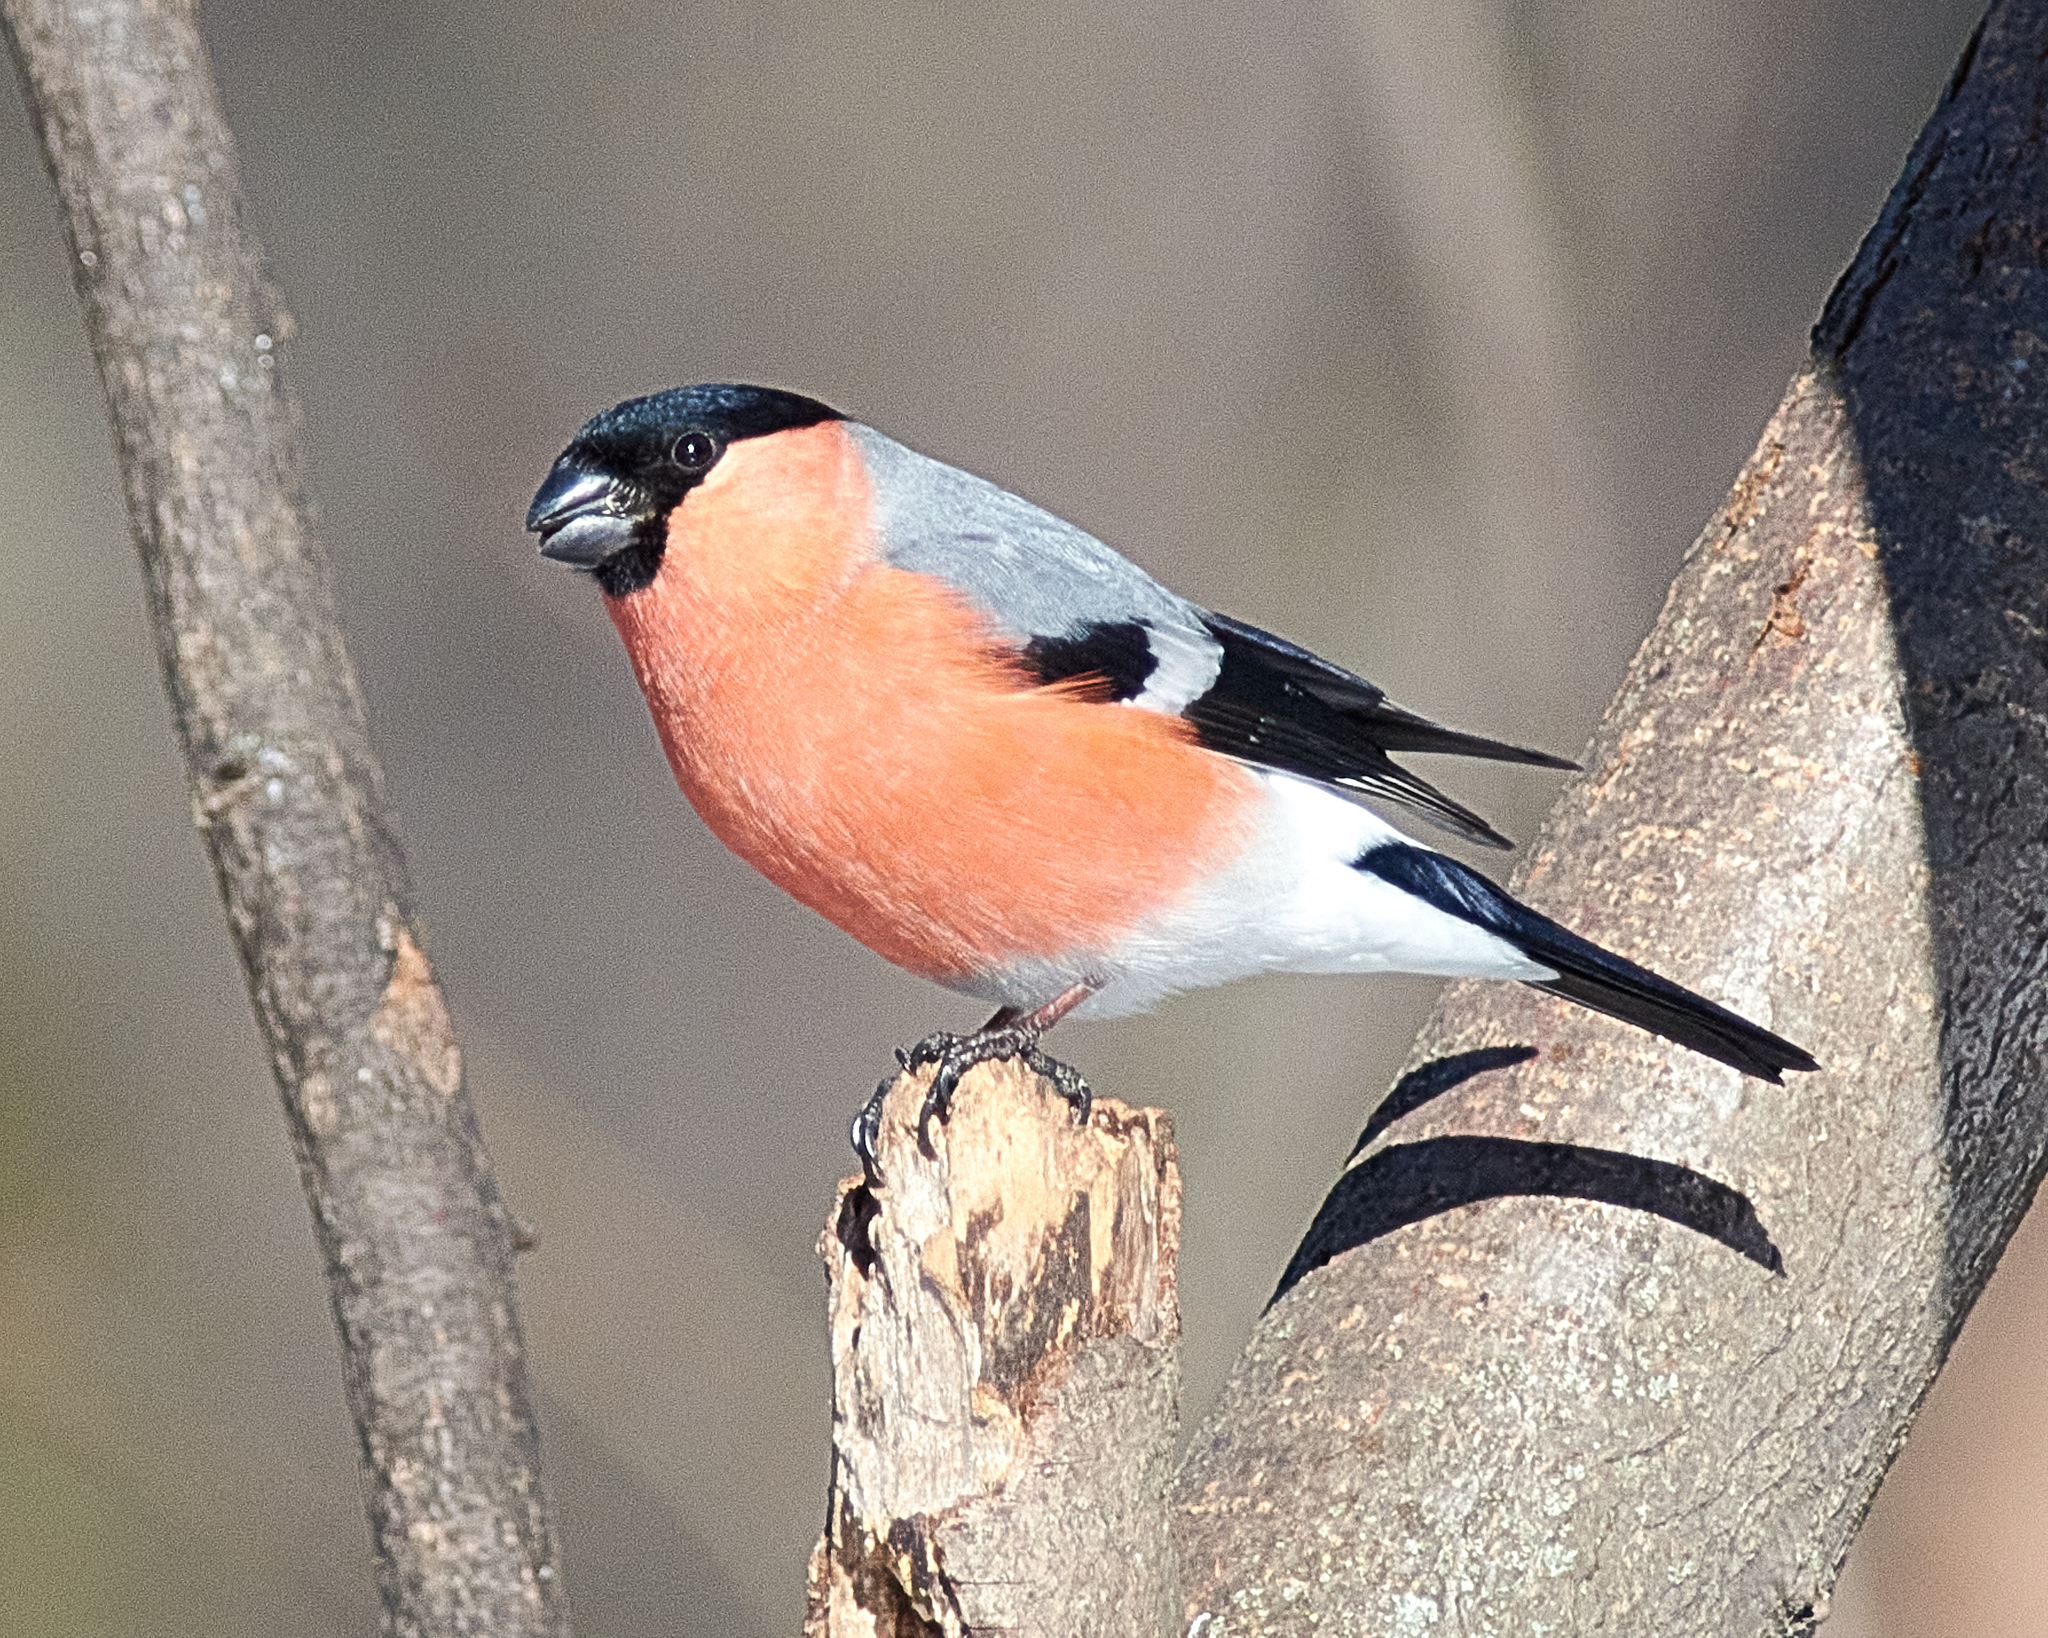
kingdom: Animalia
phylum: Chordata
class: Aves
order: Passeriformes
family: Fringillidae
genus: Pyrrhula
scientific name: Pyrrhula pyrrhula
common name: Eurasian bullfinch
